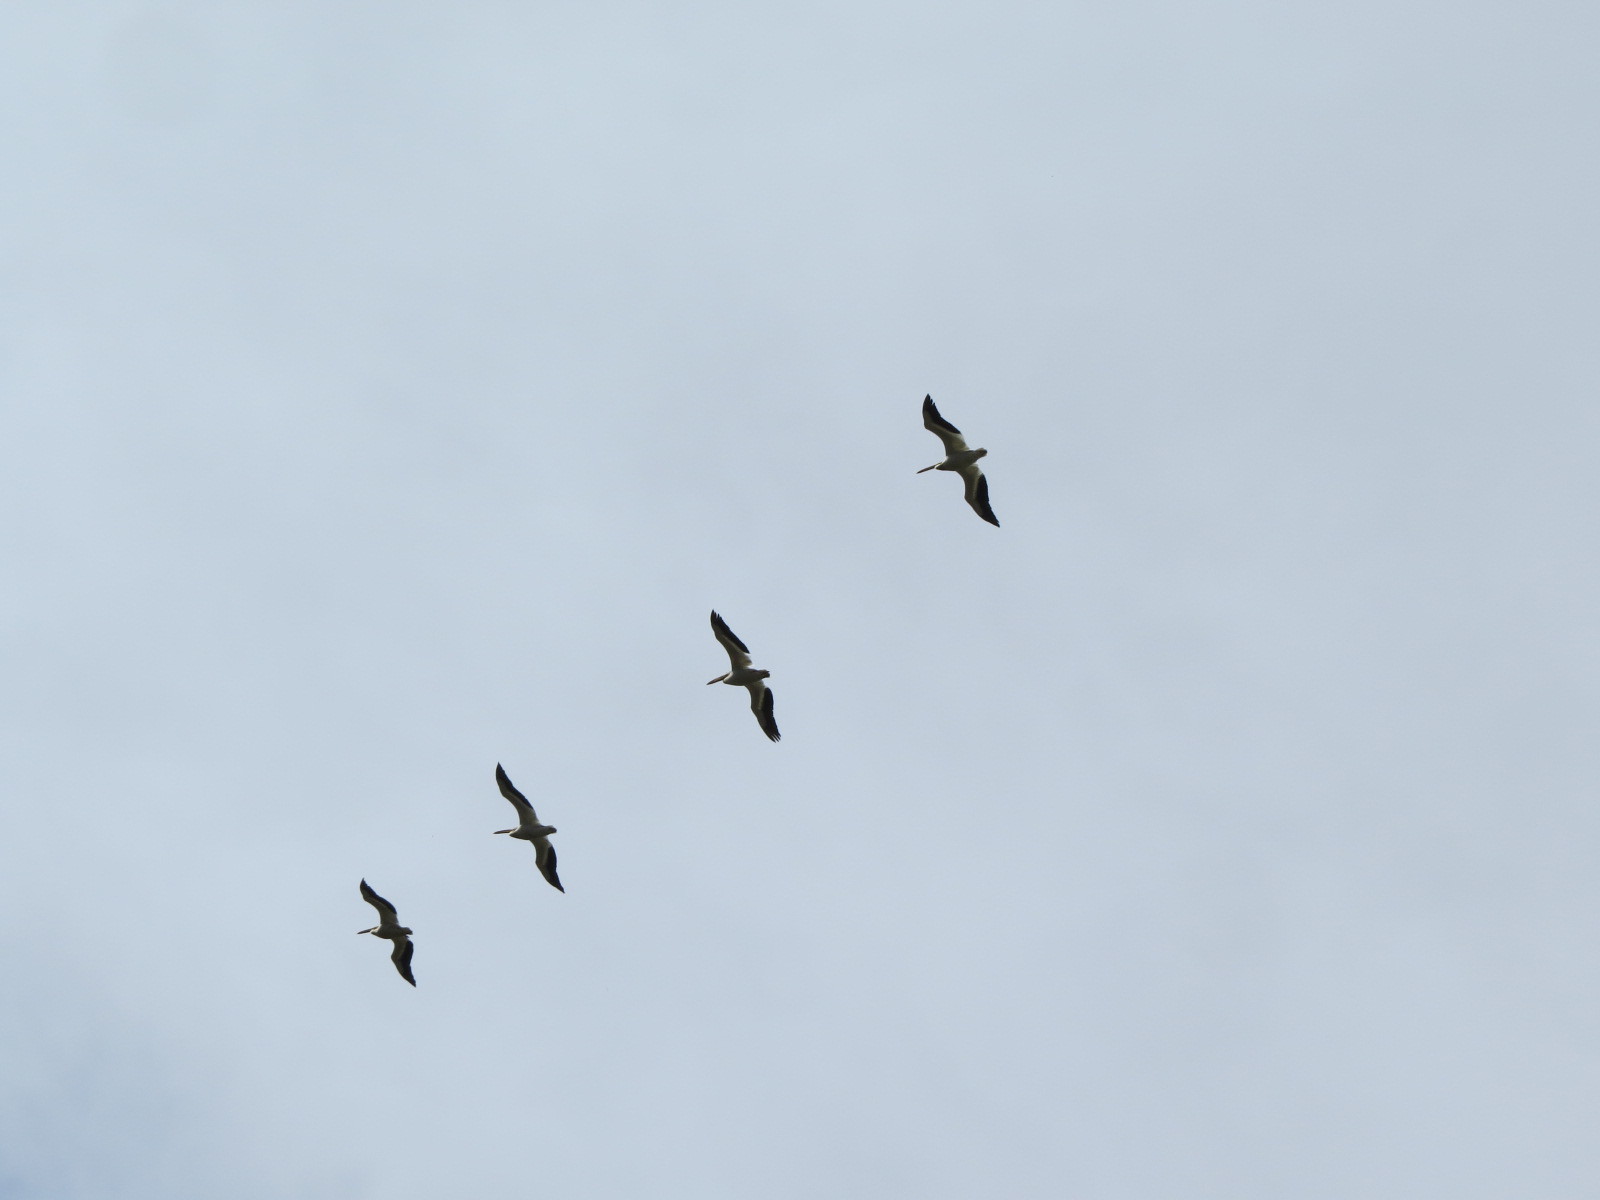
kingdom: Animalia
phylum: Chordata
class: Aves
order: Pelecaniformes
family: Pelecanidae
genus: Pelecanus
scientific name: Pelecanus erythrorhynchos
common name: American white pelican
